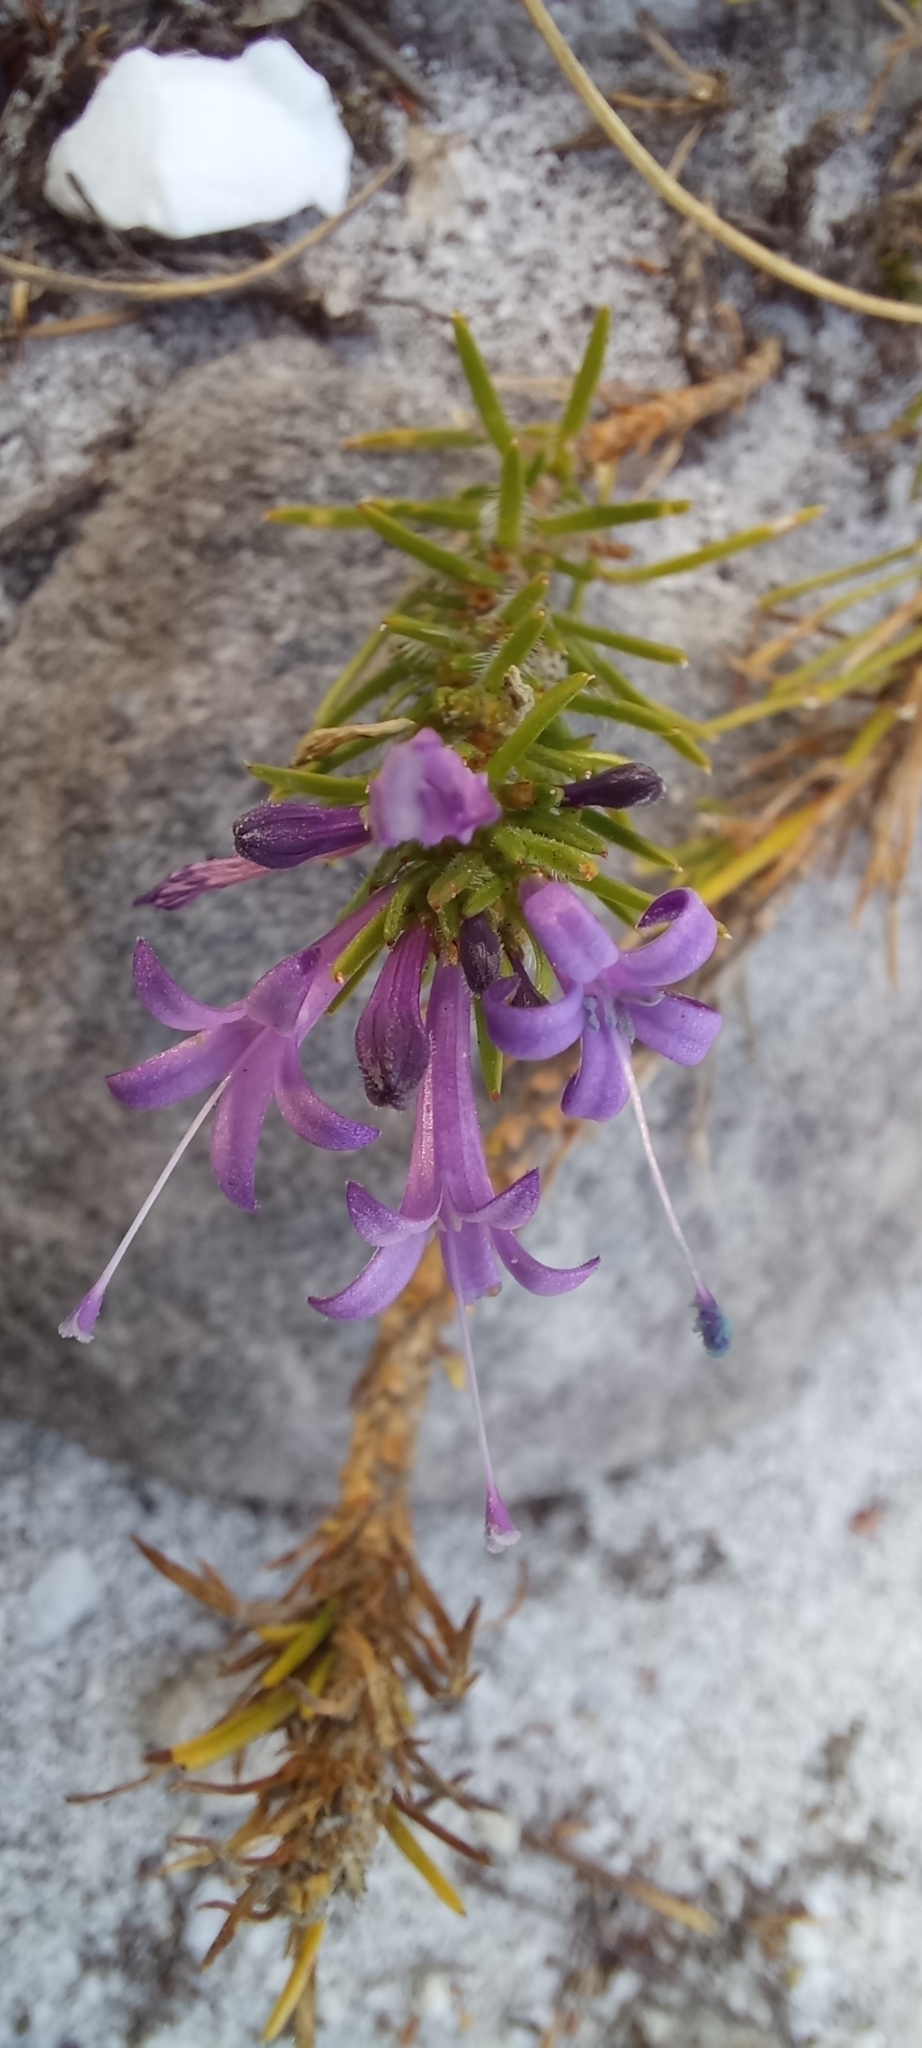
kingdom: Plantae
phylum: Tracheophyta
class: Magnoliopsida
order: Asterales
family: Campanulaceae
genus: Merciera
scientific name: Merciera azurea
